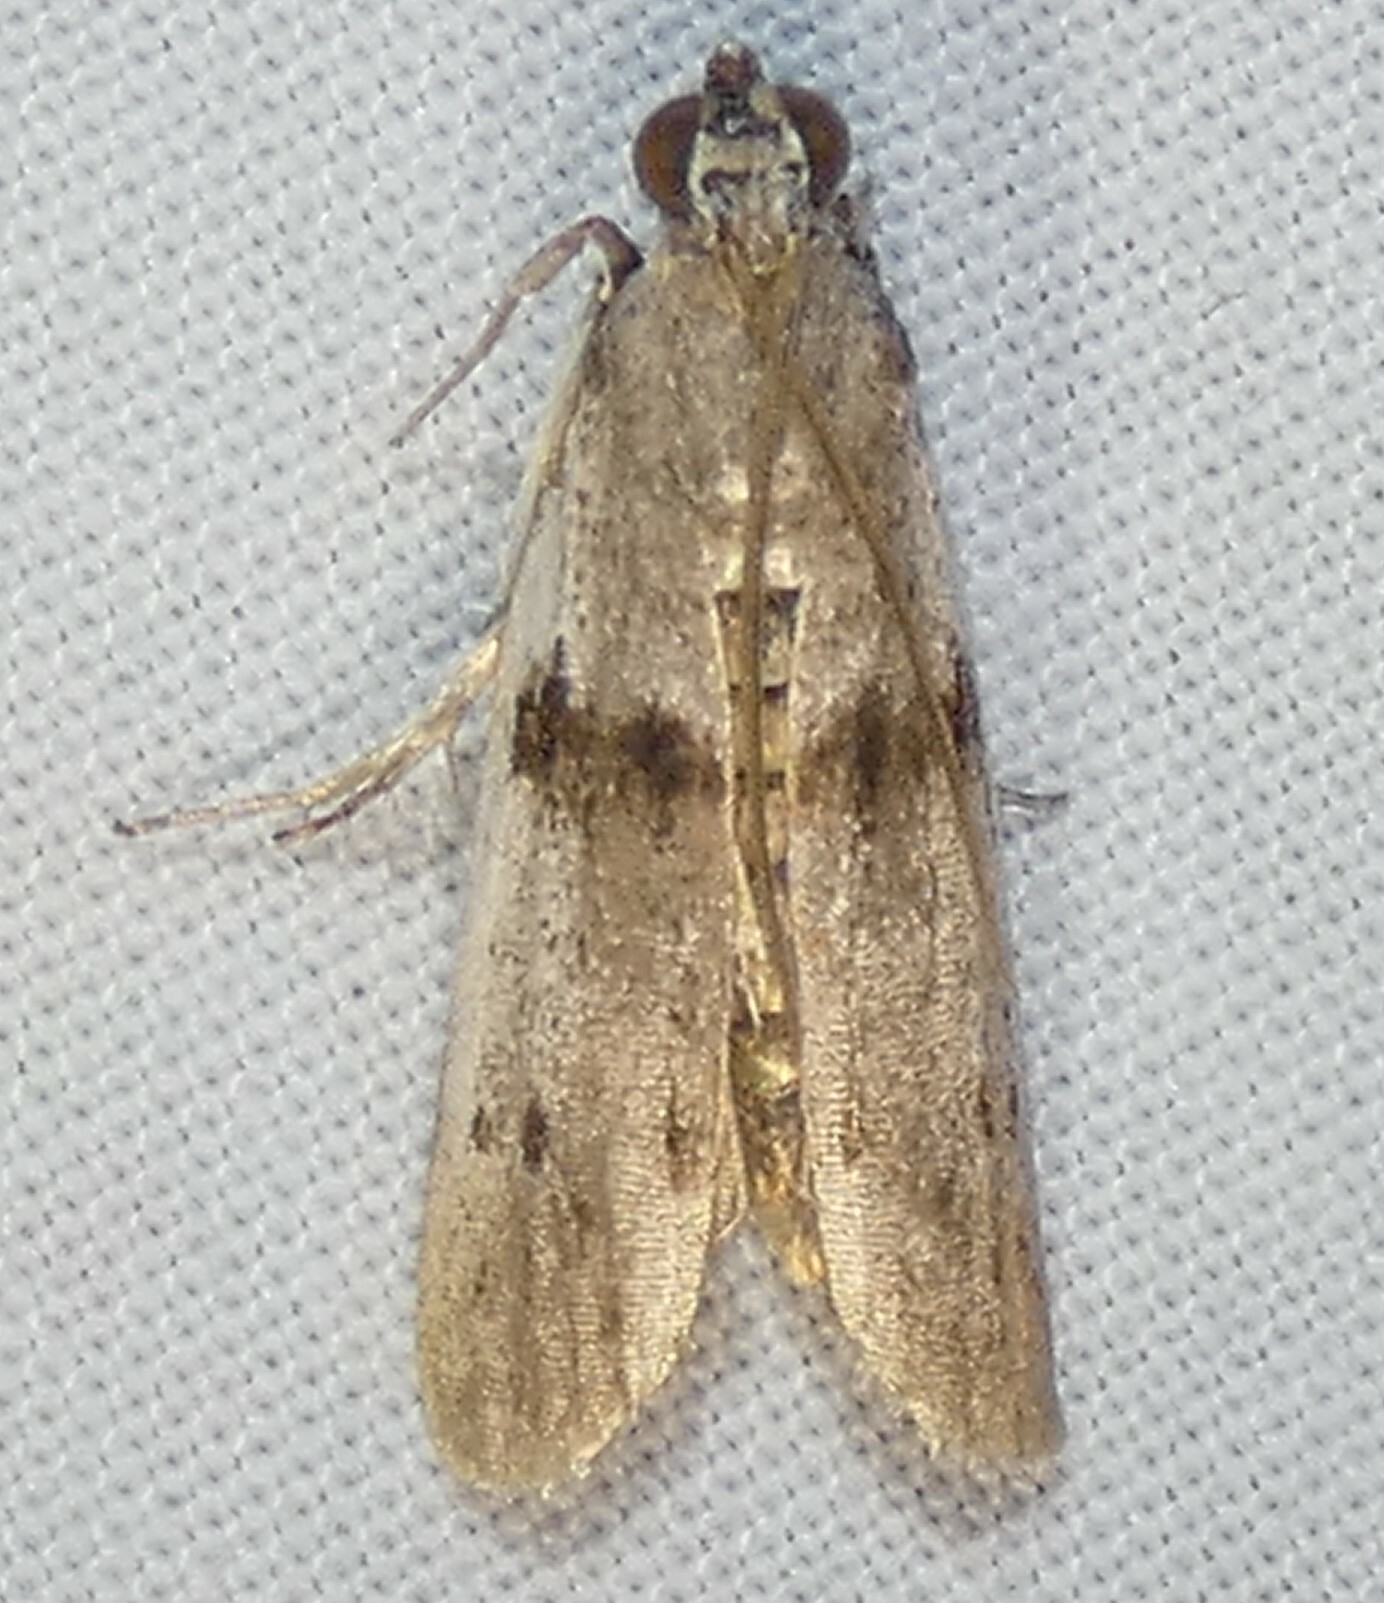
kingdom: Animalia
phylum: Arthropoda
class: Insecta
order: Lepidoptera
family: Pyralidae
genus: Homoeosoma
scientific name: Homoeosoma deceptorium
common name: Black-banded homoeosoma moth
